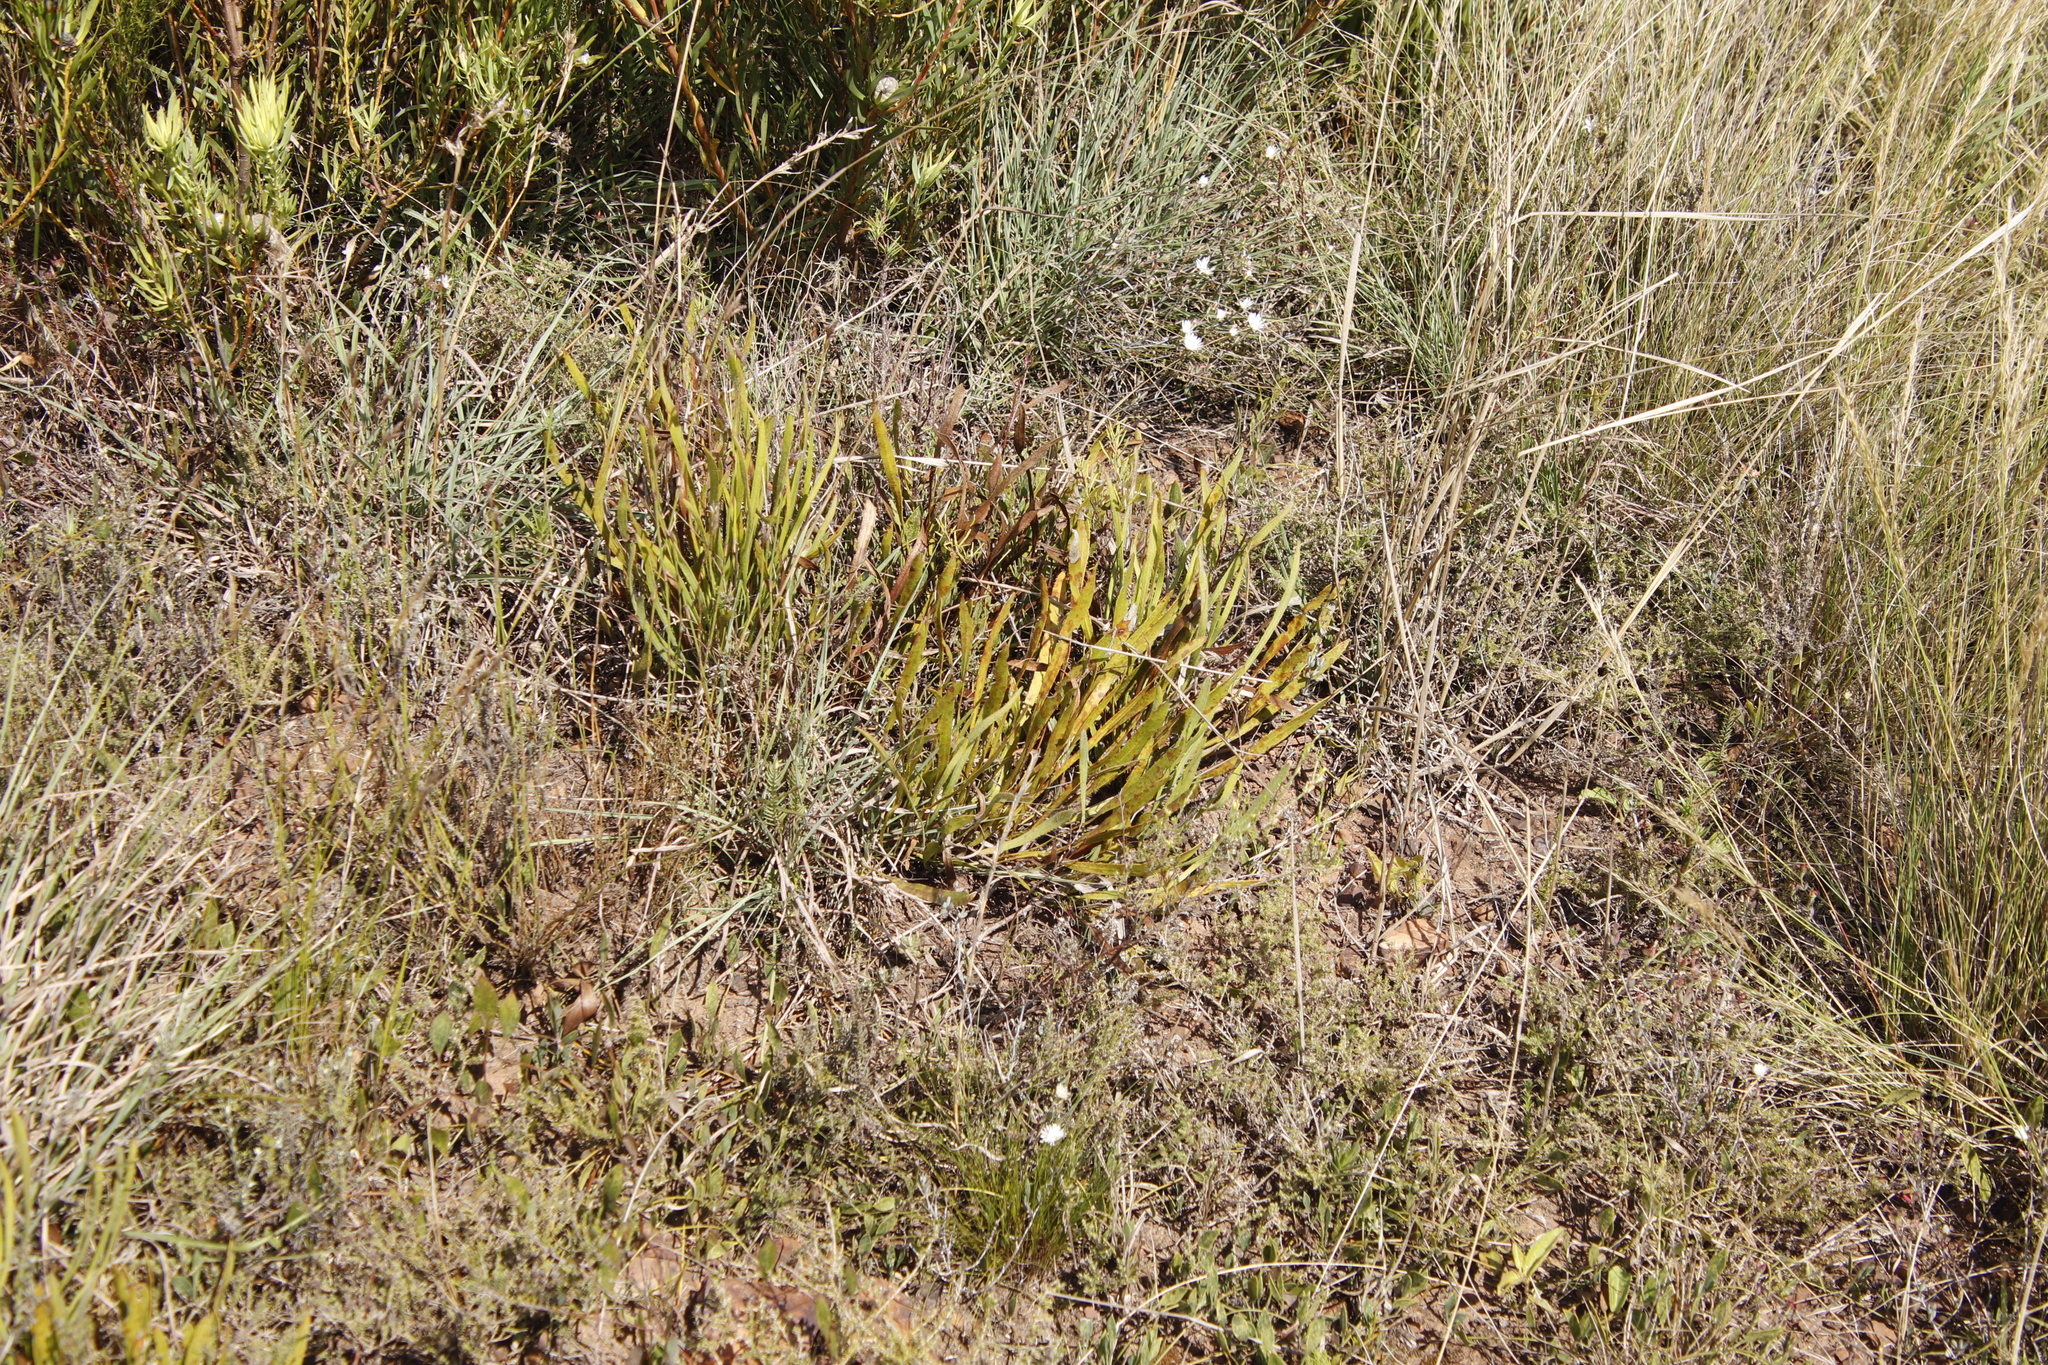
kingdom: Plantae
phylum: Tracheophyta
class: Magnoliopsida
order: Proteales
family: Proteaceae
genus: Protea
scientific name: Protea scabra
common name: Sandpaper-leaf sugarbush
